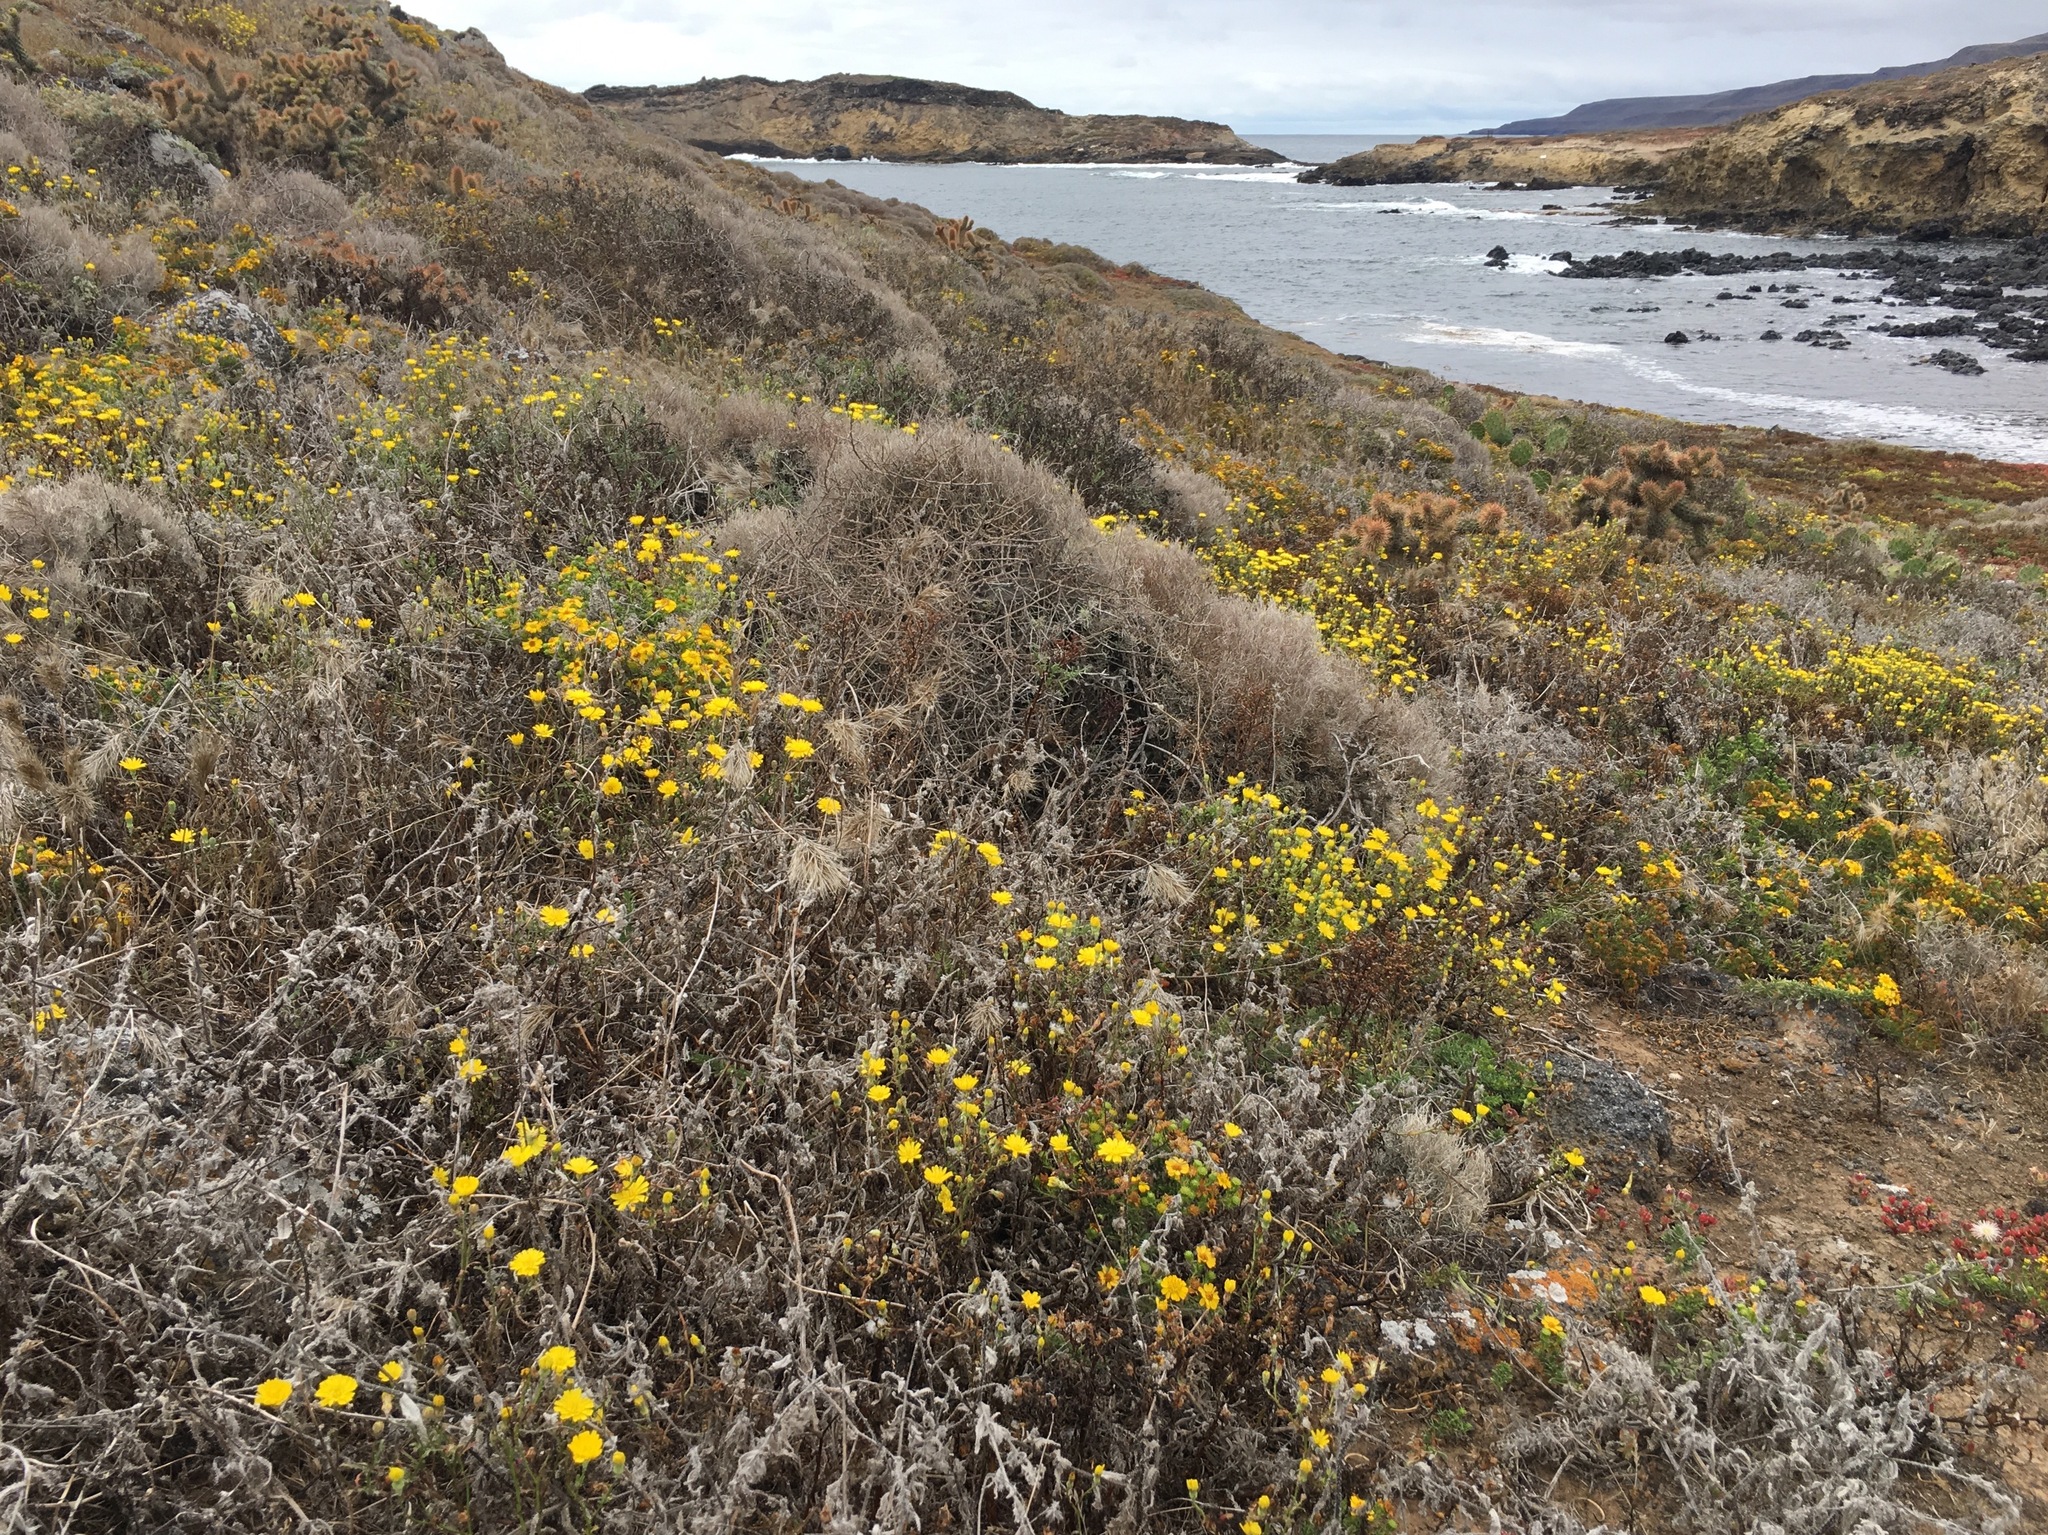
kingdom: Plantae
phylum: Tracheophyta
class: Magnoliopsida
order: Asterales
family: Asteraceae
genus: Malacothrix
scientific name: Malacothrix foliosa
